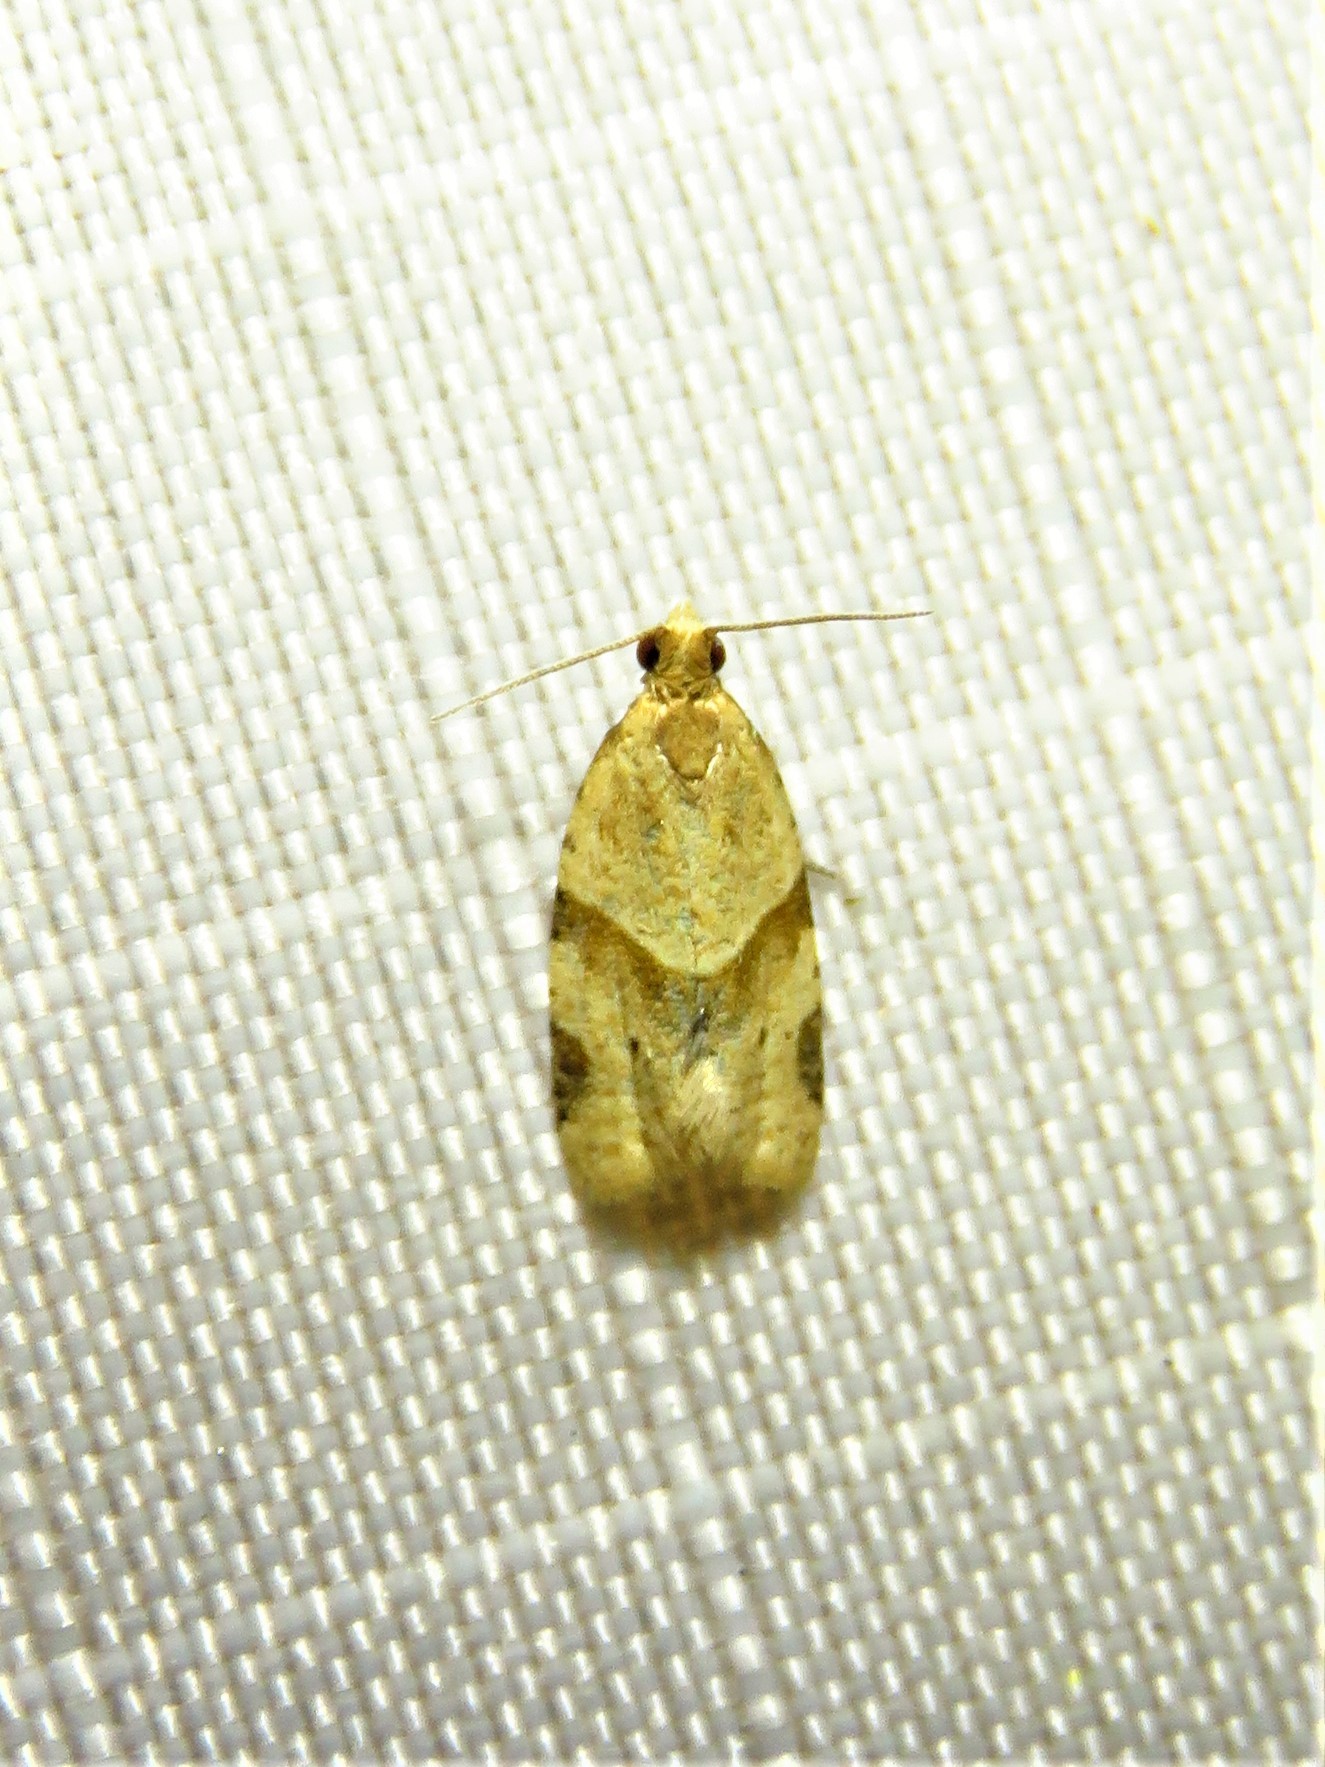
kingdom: Animalia
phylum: Arthropoda
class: Insecta
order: Lepidoptera
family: Tortricidae
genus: Clepsis
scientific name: Clepsis peritana
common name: Garden tortrix
